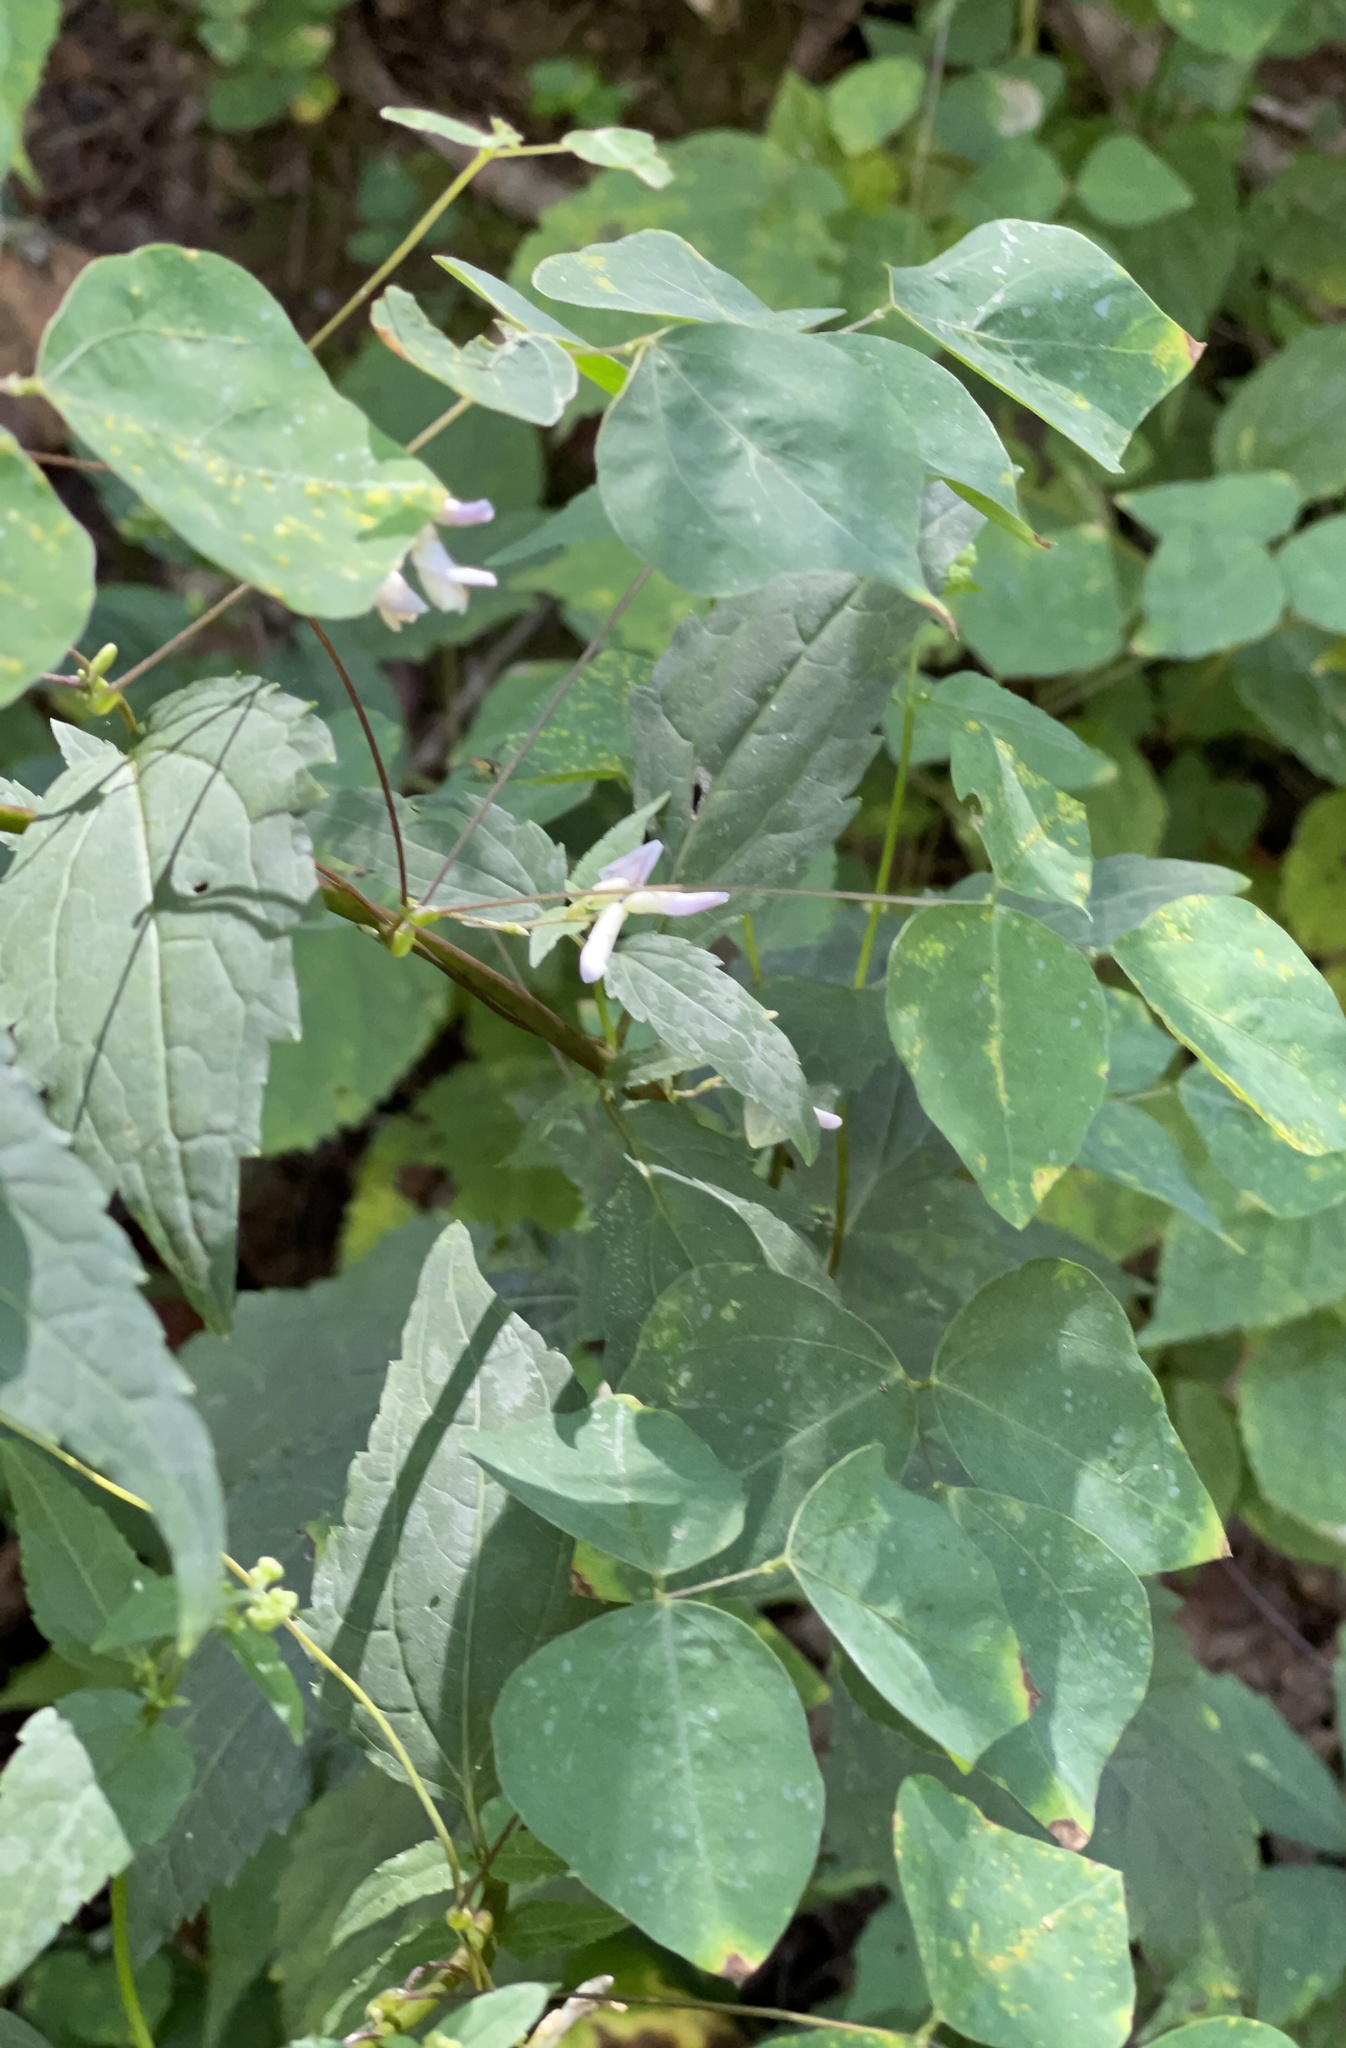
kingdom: Plantae
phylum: Tracheophyta
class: Magnoliopsida
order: Fabales
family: Fabaceae
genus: Amphicarpaea
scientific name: Amphicarpaea bracteata
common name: American hog peanut
